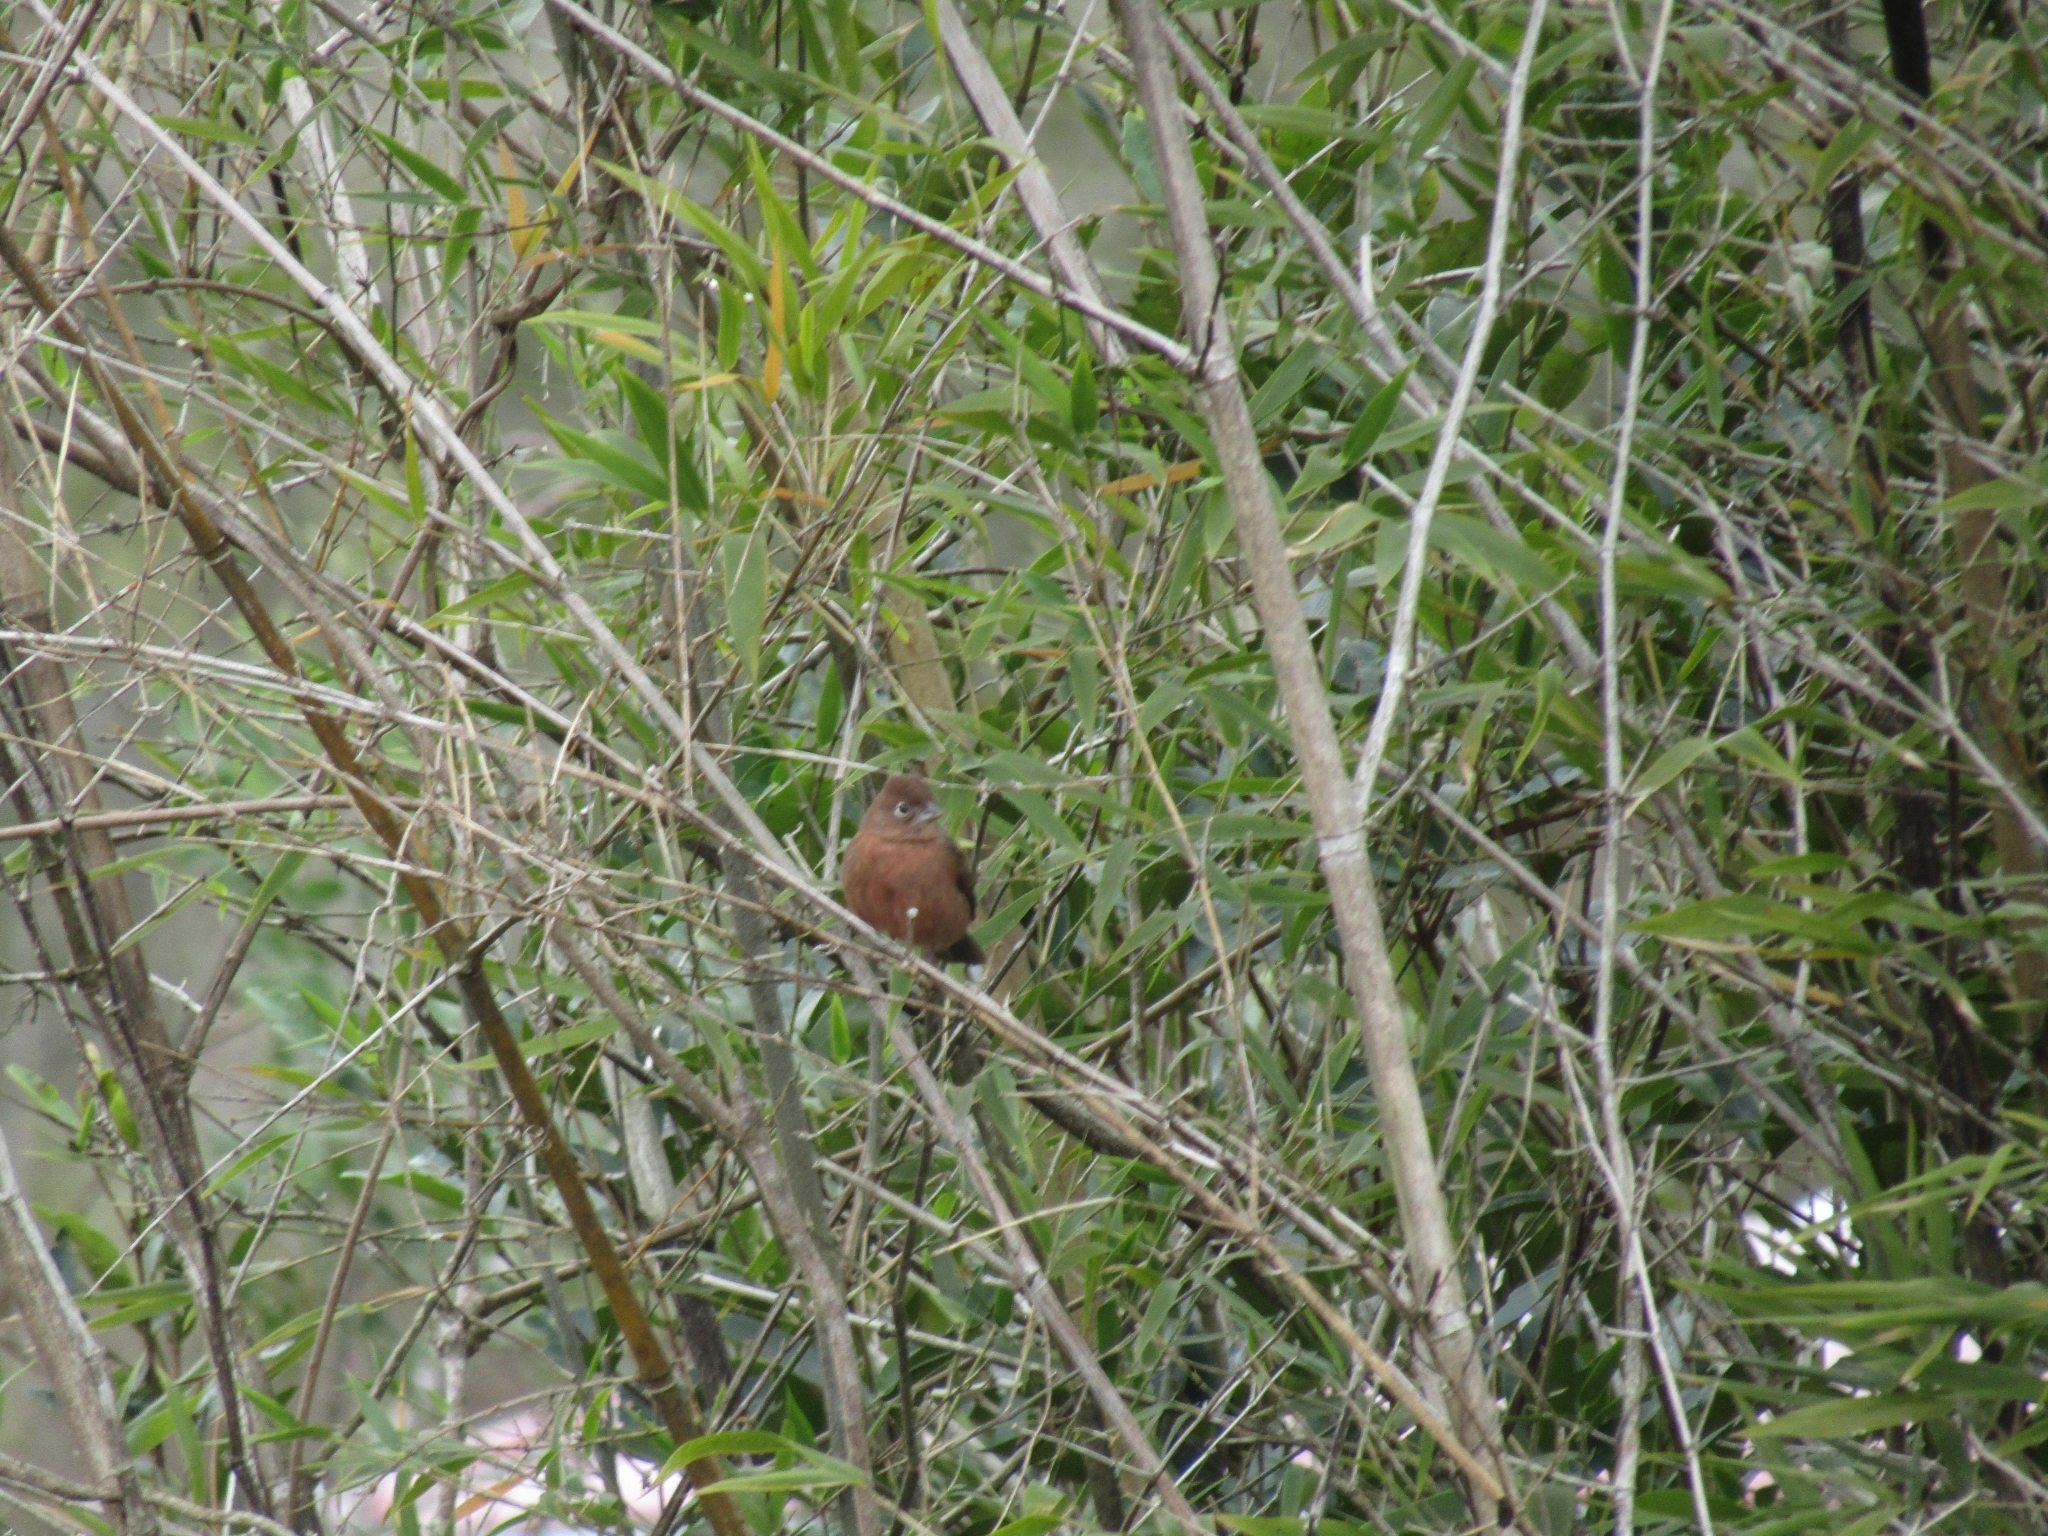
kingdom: Animalia
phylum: Chordata
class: Aves
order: Passeriformes
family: Thraupidae
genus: Coryphospingus
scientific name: Coryphospingus cucullatus
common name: Red pileated finch
